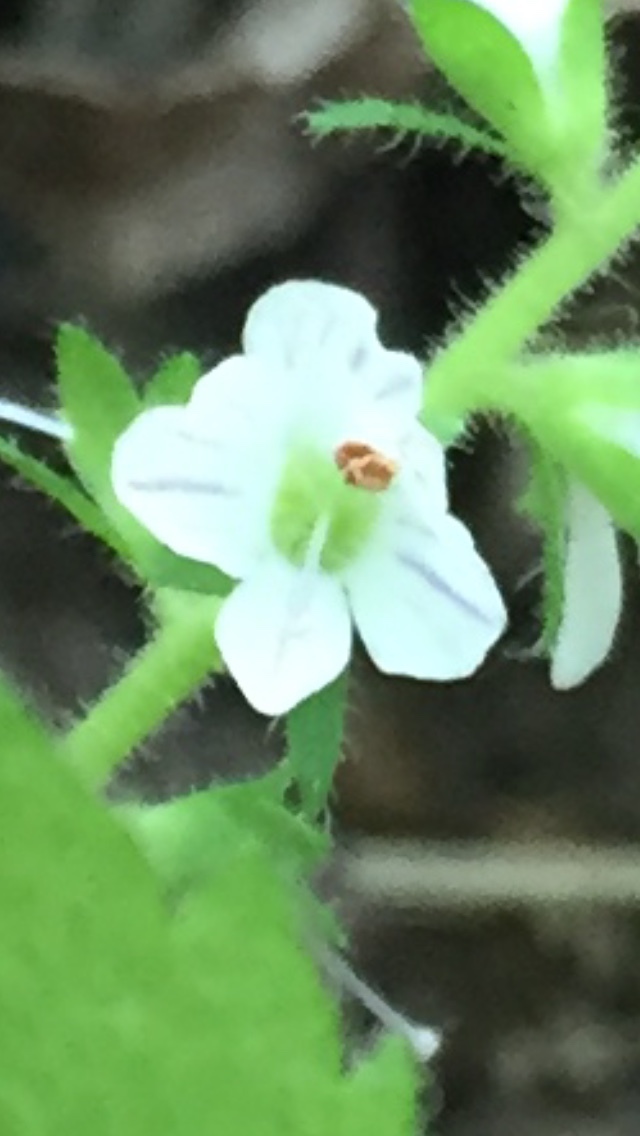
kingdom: Plantae
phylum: Tracheophyta
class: Magnoliopsida
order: Lamiales
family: Plantaginaceae
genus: Veronica
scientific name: Veronica officinalis
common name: Common speedwell
